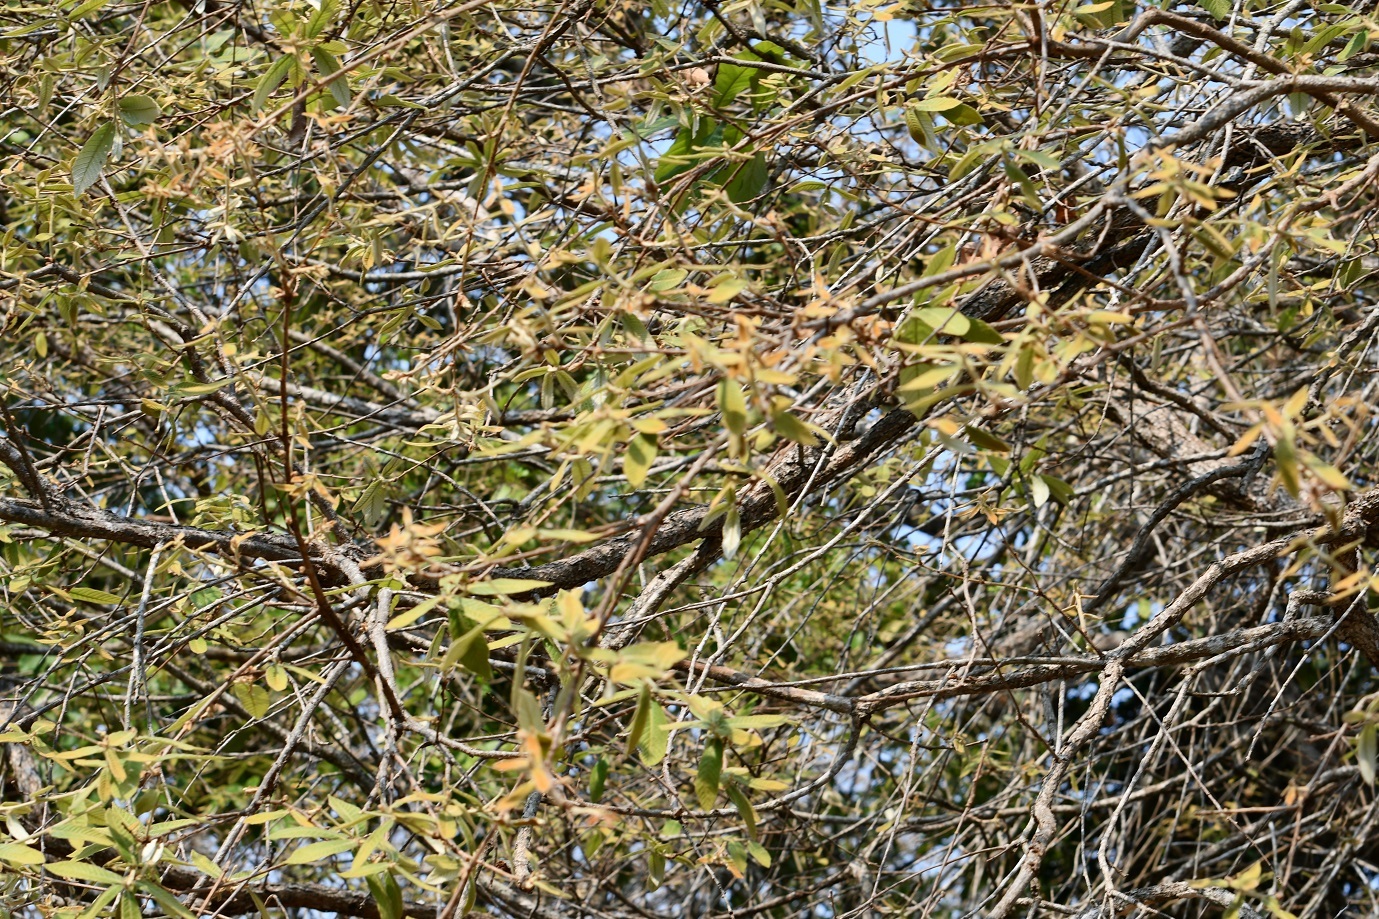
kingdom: Plantae
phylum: Tracheophyta
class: Magnoliopsida
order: Fagales
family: Fagaceae
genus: Quercus
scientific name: Quercus peduncularis
